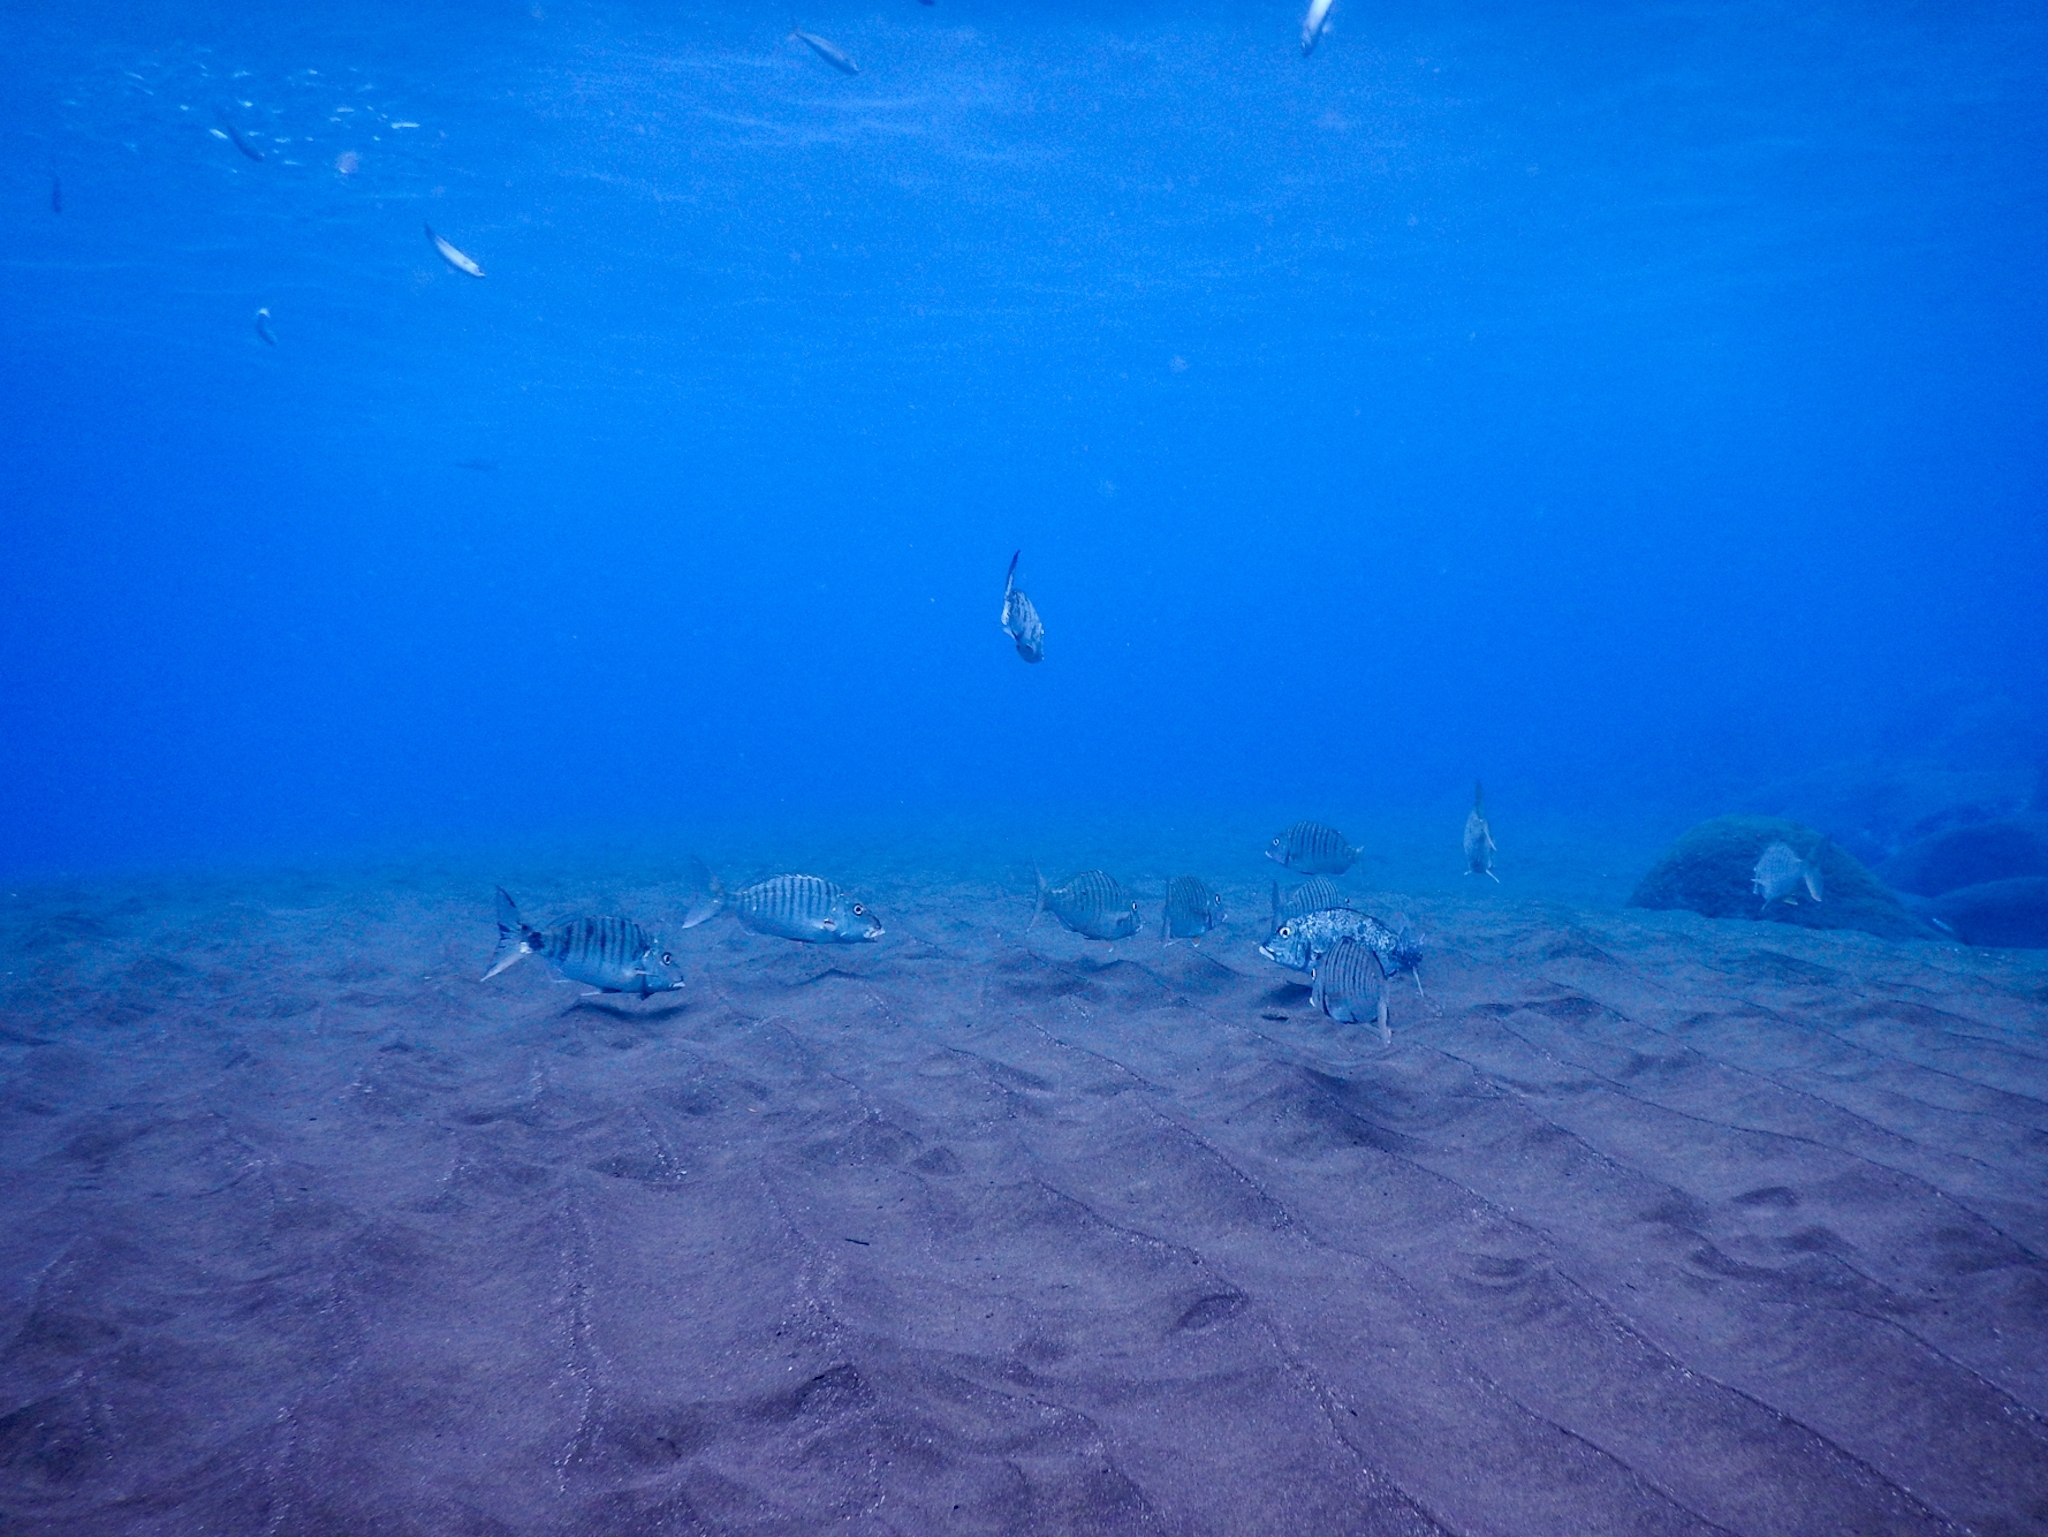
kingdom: Animalia
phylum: Chordata
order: Perciformes
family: Sparidae
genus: Lithognathus
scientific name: Lithognathus mormyrus
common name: Sand steenbras
